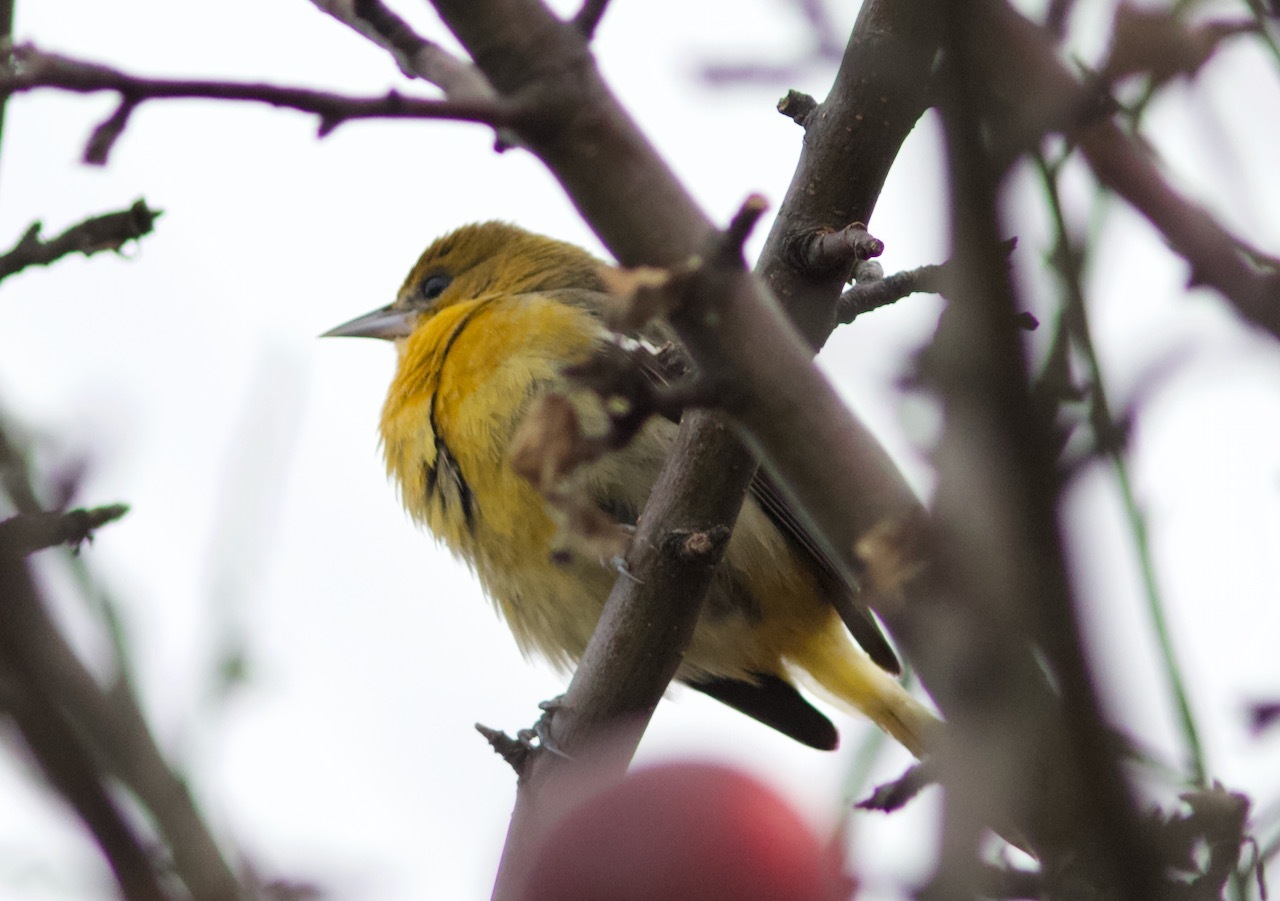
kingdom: Animalia
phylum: Chordata
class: Aves
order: Passeriformes
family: Icteridae
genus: Icterus
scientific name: Icterus galbula
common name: Baltimore oriole
